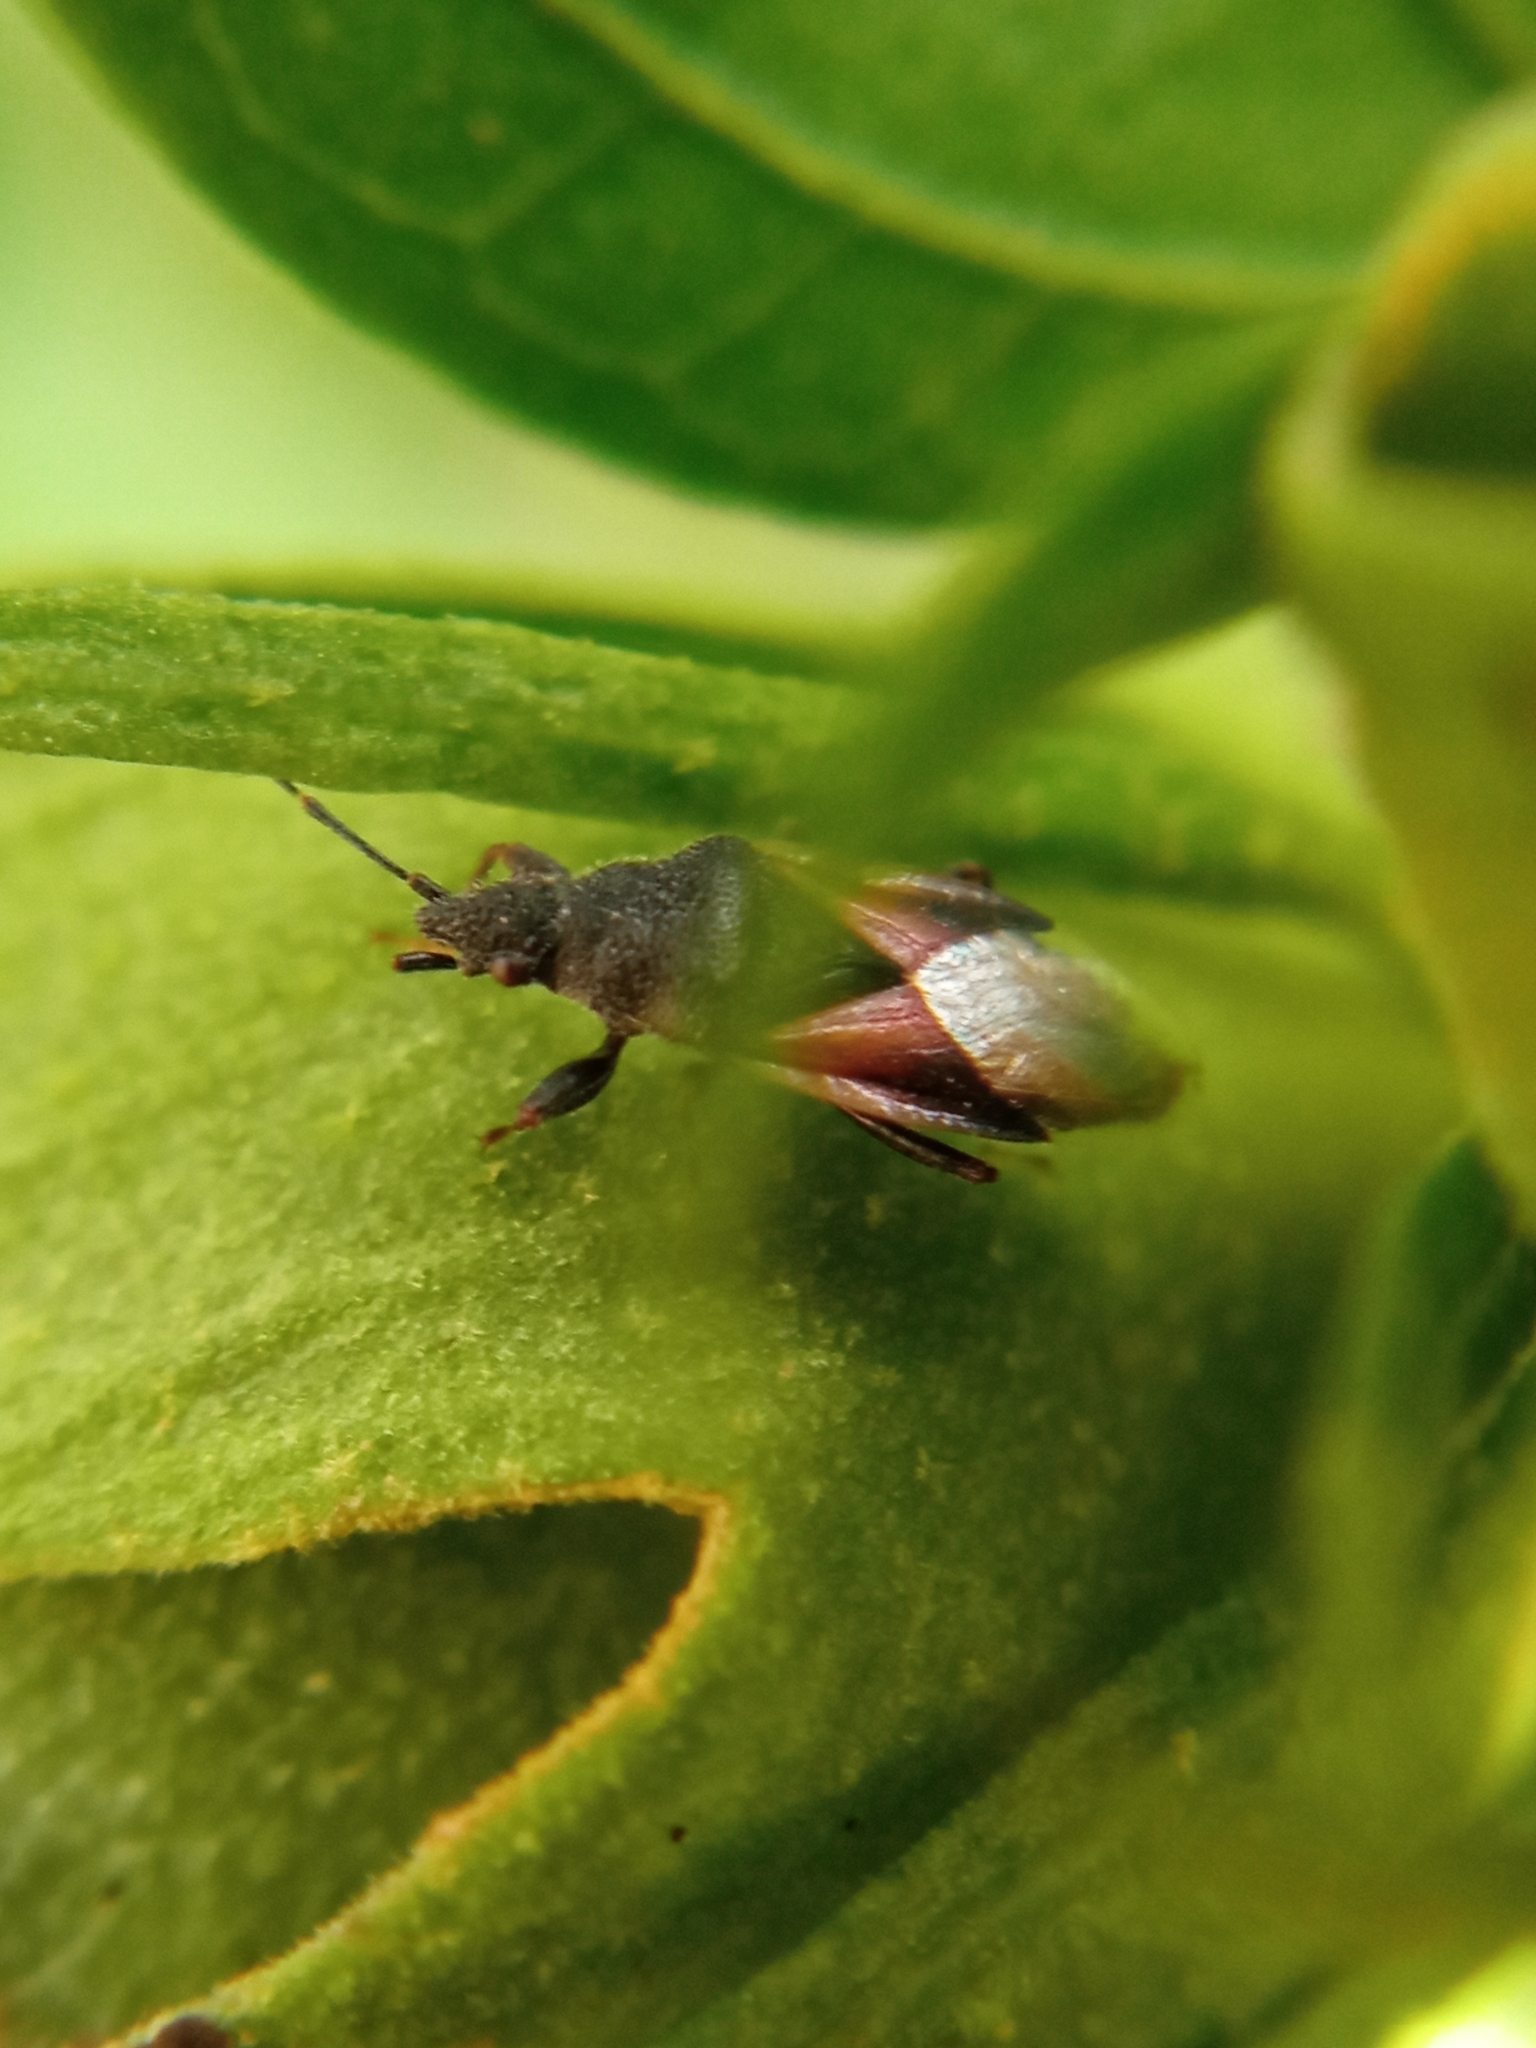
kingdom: Animalia
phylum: Arthropoda
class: Insecta
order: Hemiptera
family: Oxycarenidae
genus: Oxycarenus
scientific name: Oxycarenus lavaterae
